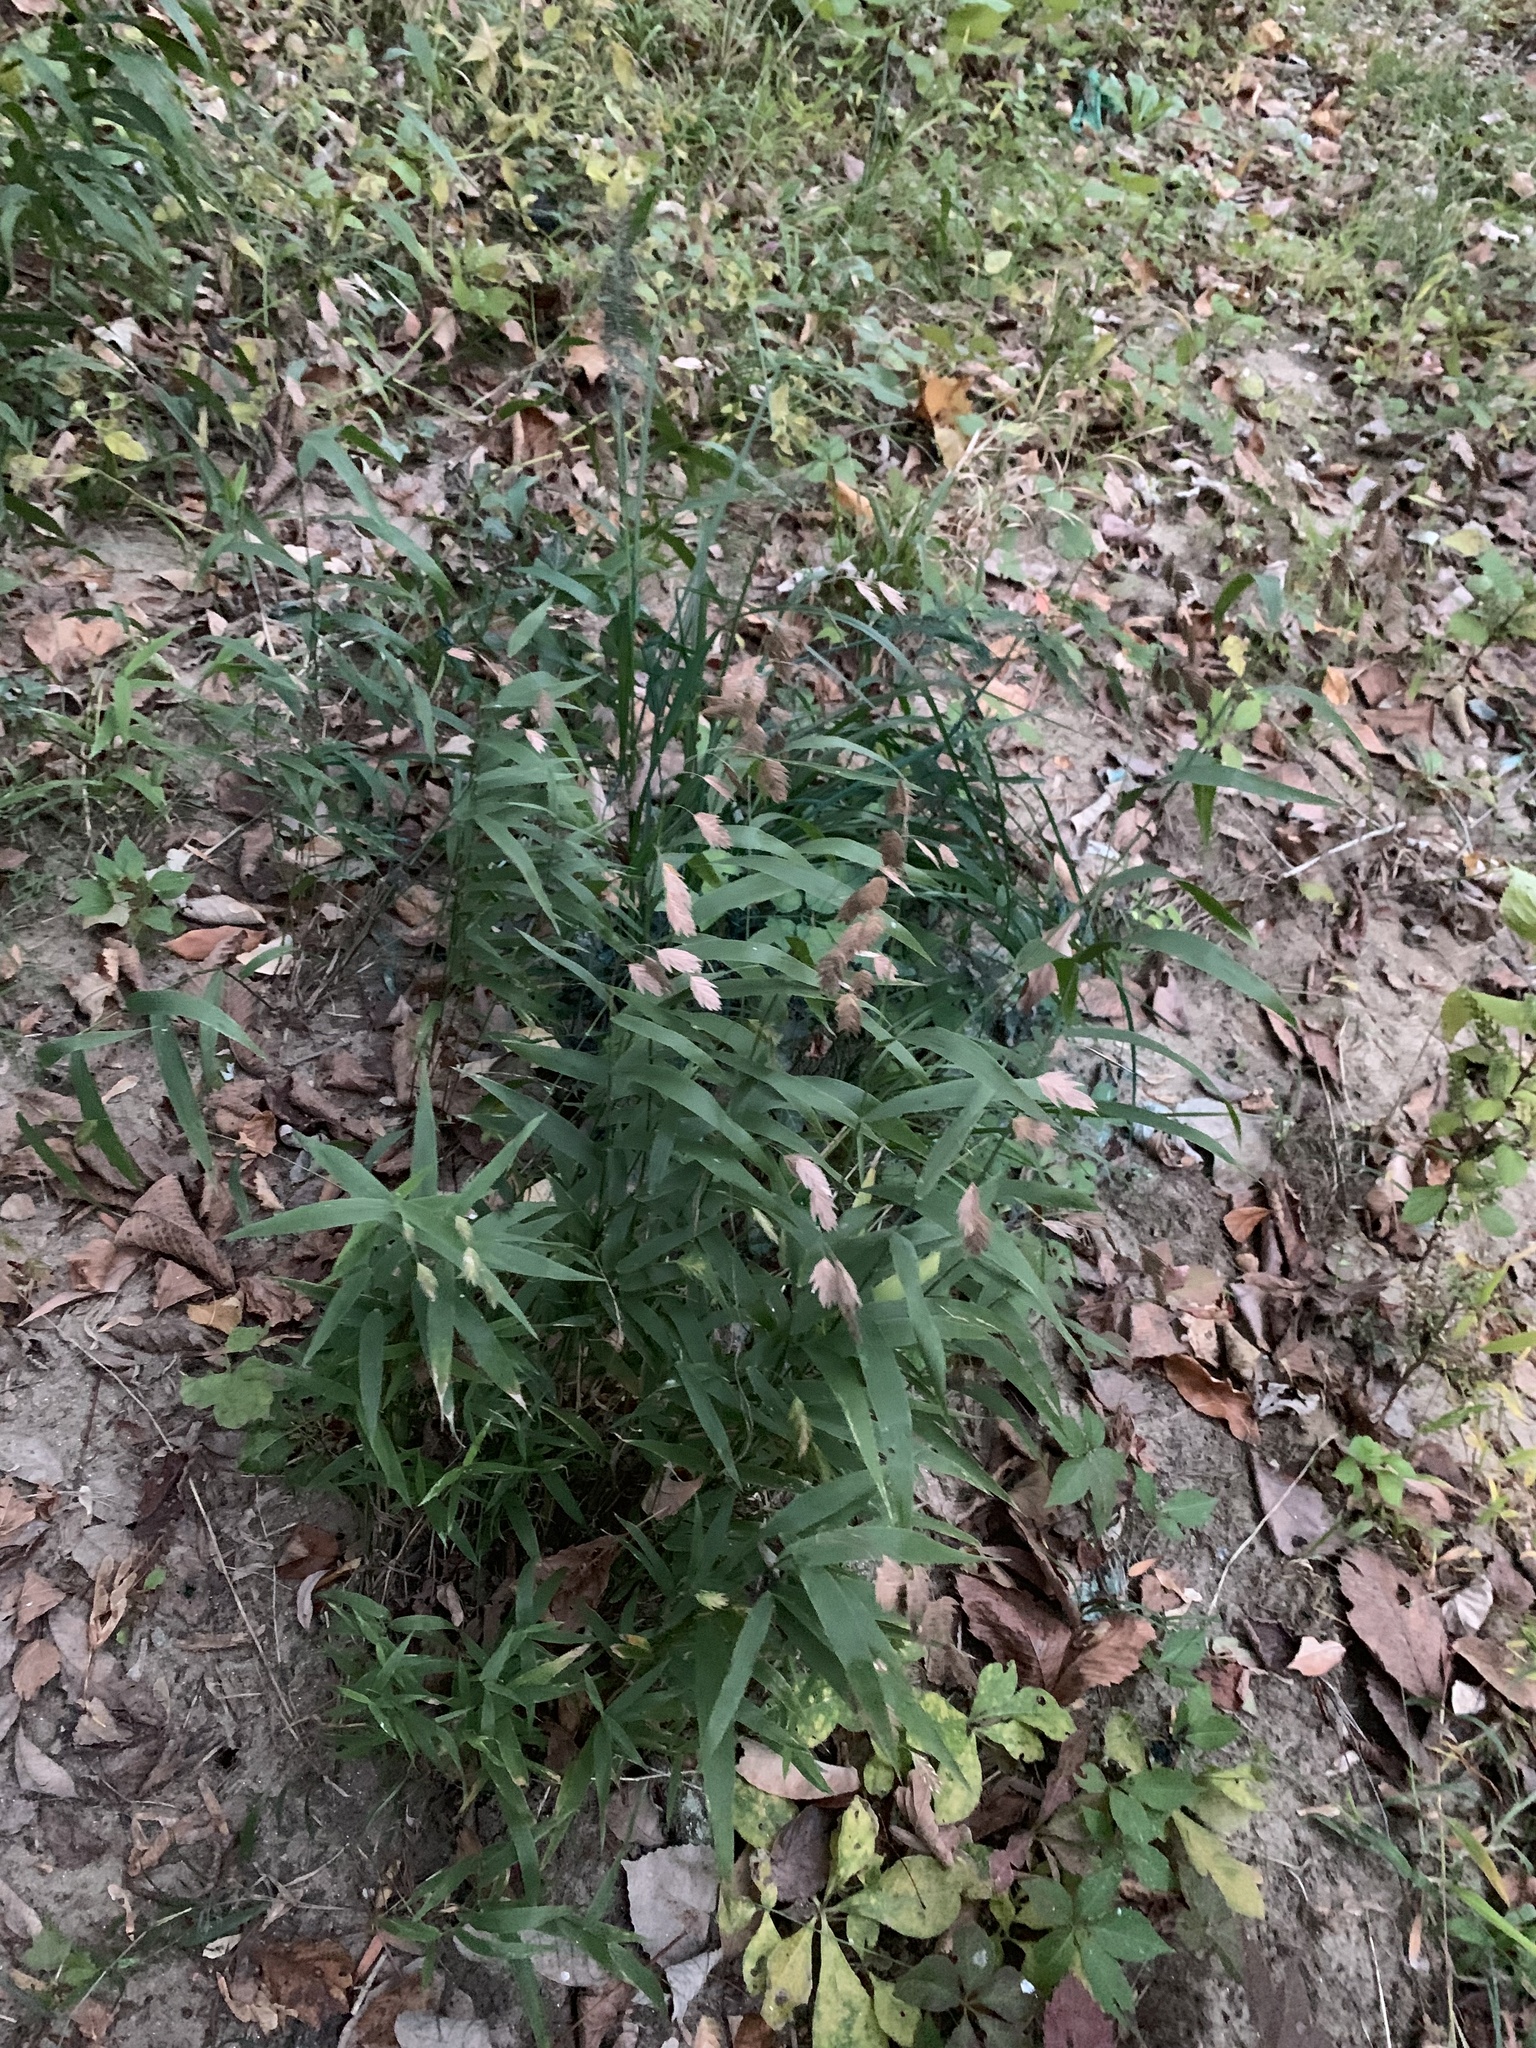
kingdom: Plantae
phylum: Tracheophyta
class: Liliopsida
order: Poales
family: Poaceae
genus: Chasmanthium
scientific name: Chasmanthium latifolium
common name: Broad-leaved chasmanthium
